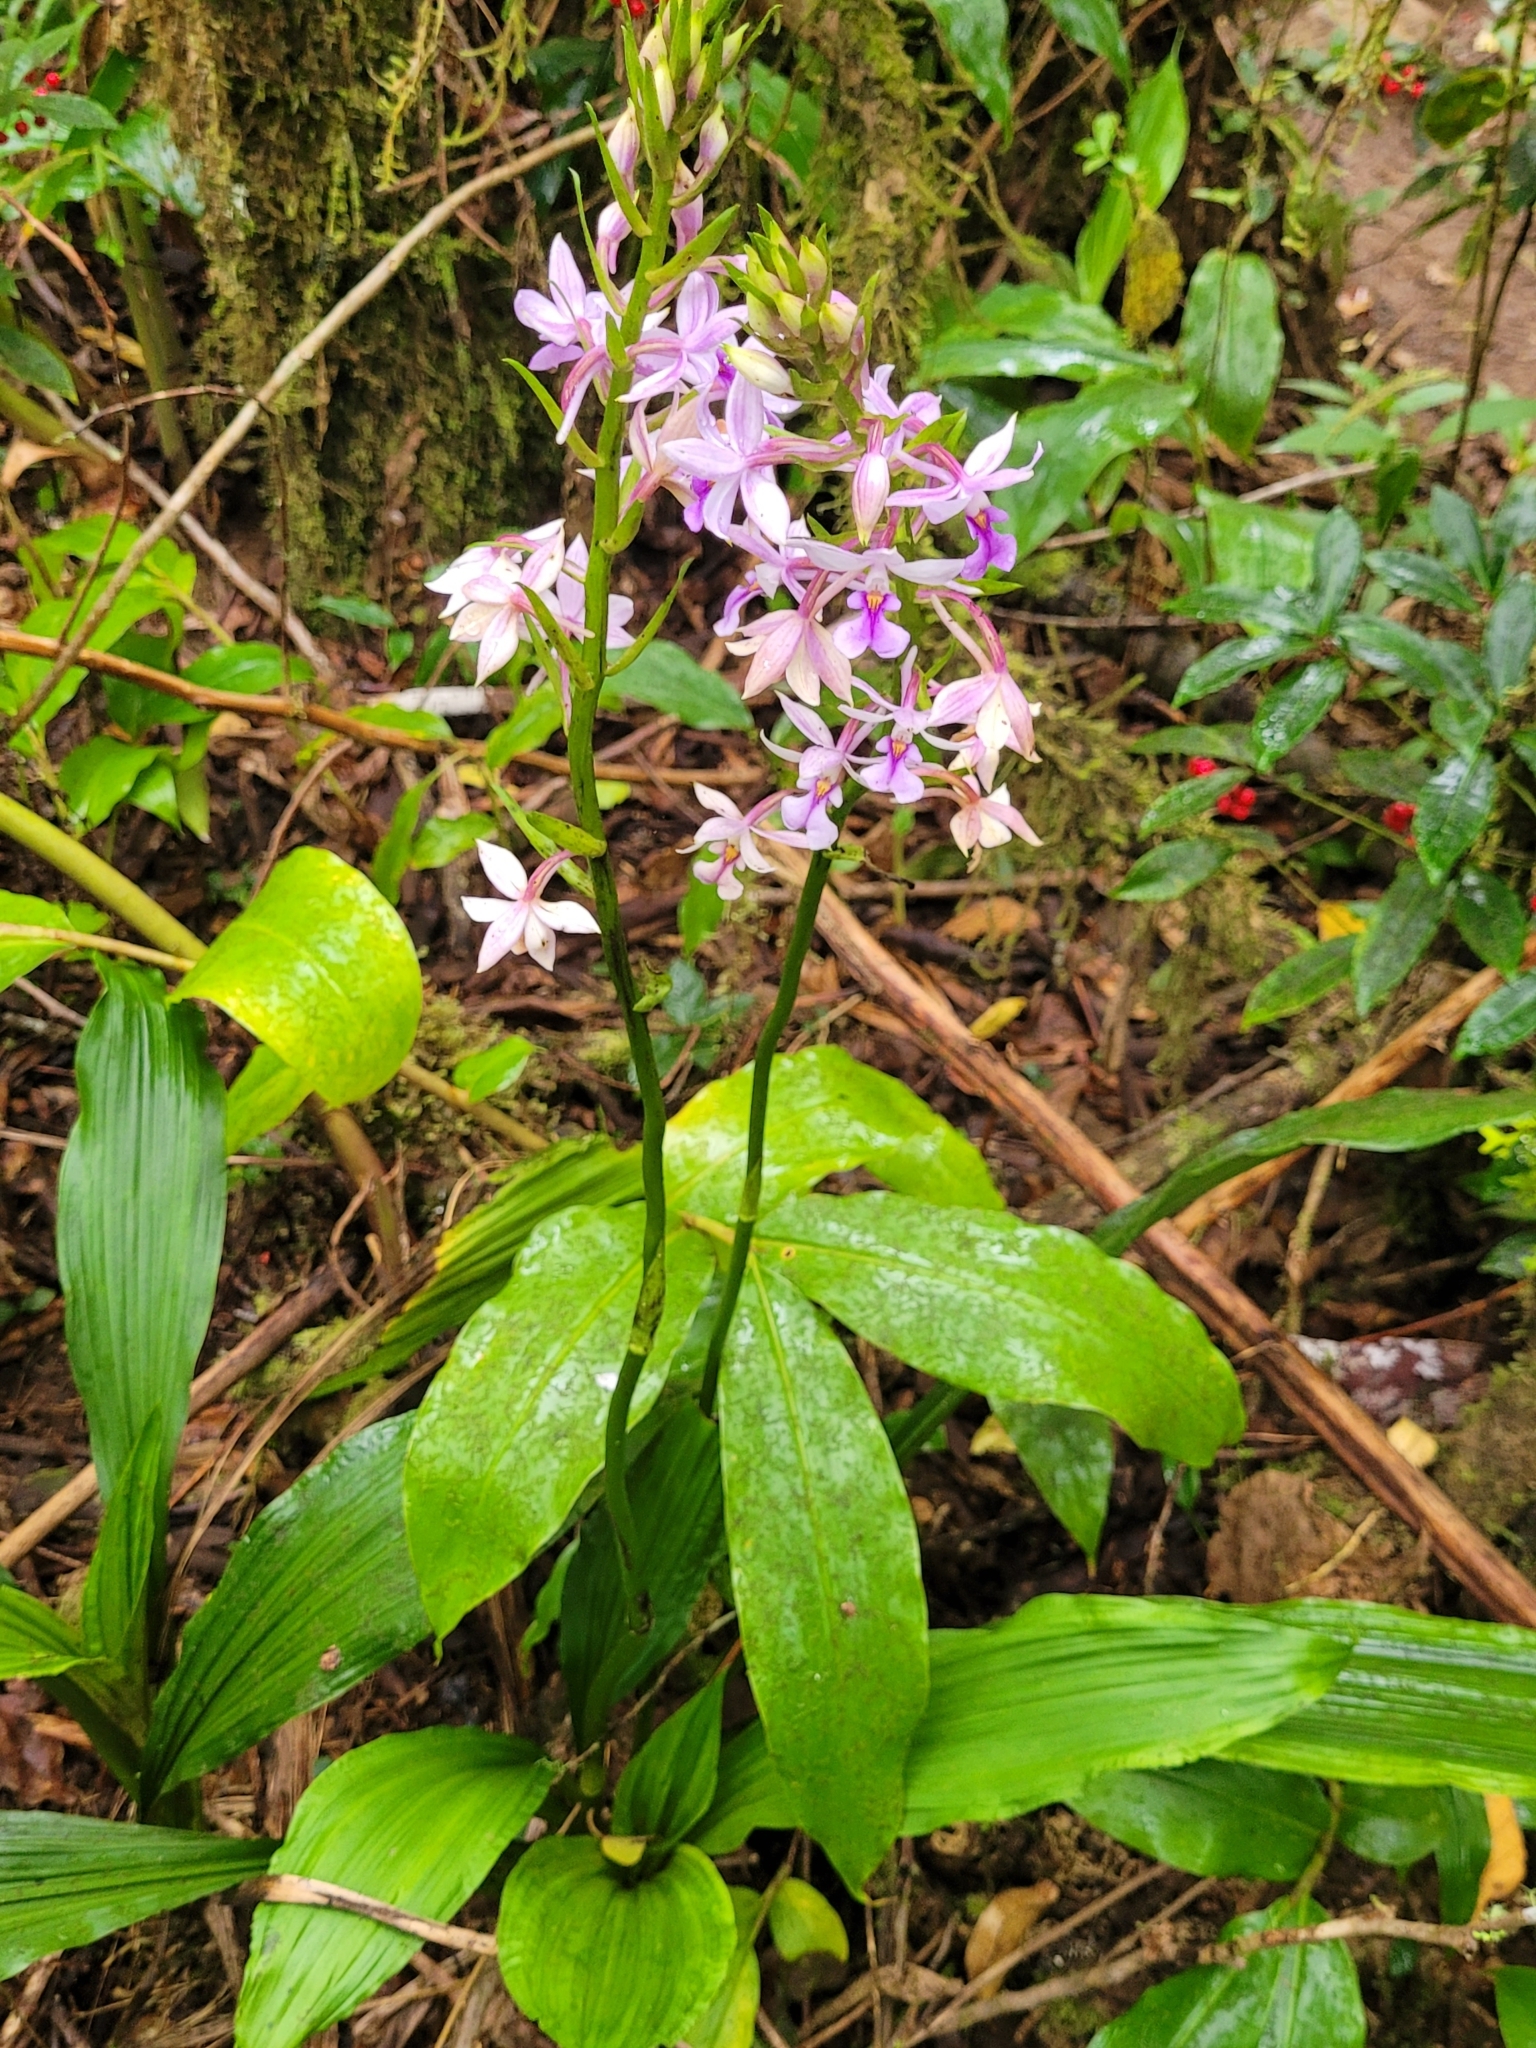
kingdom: Plantae
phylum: Tracheophyta
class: Liliopsida
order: Asparagales
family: Orchidaceae
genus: Calanthe
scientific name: Calanthe sylvatica
